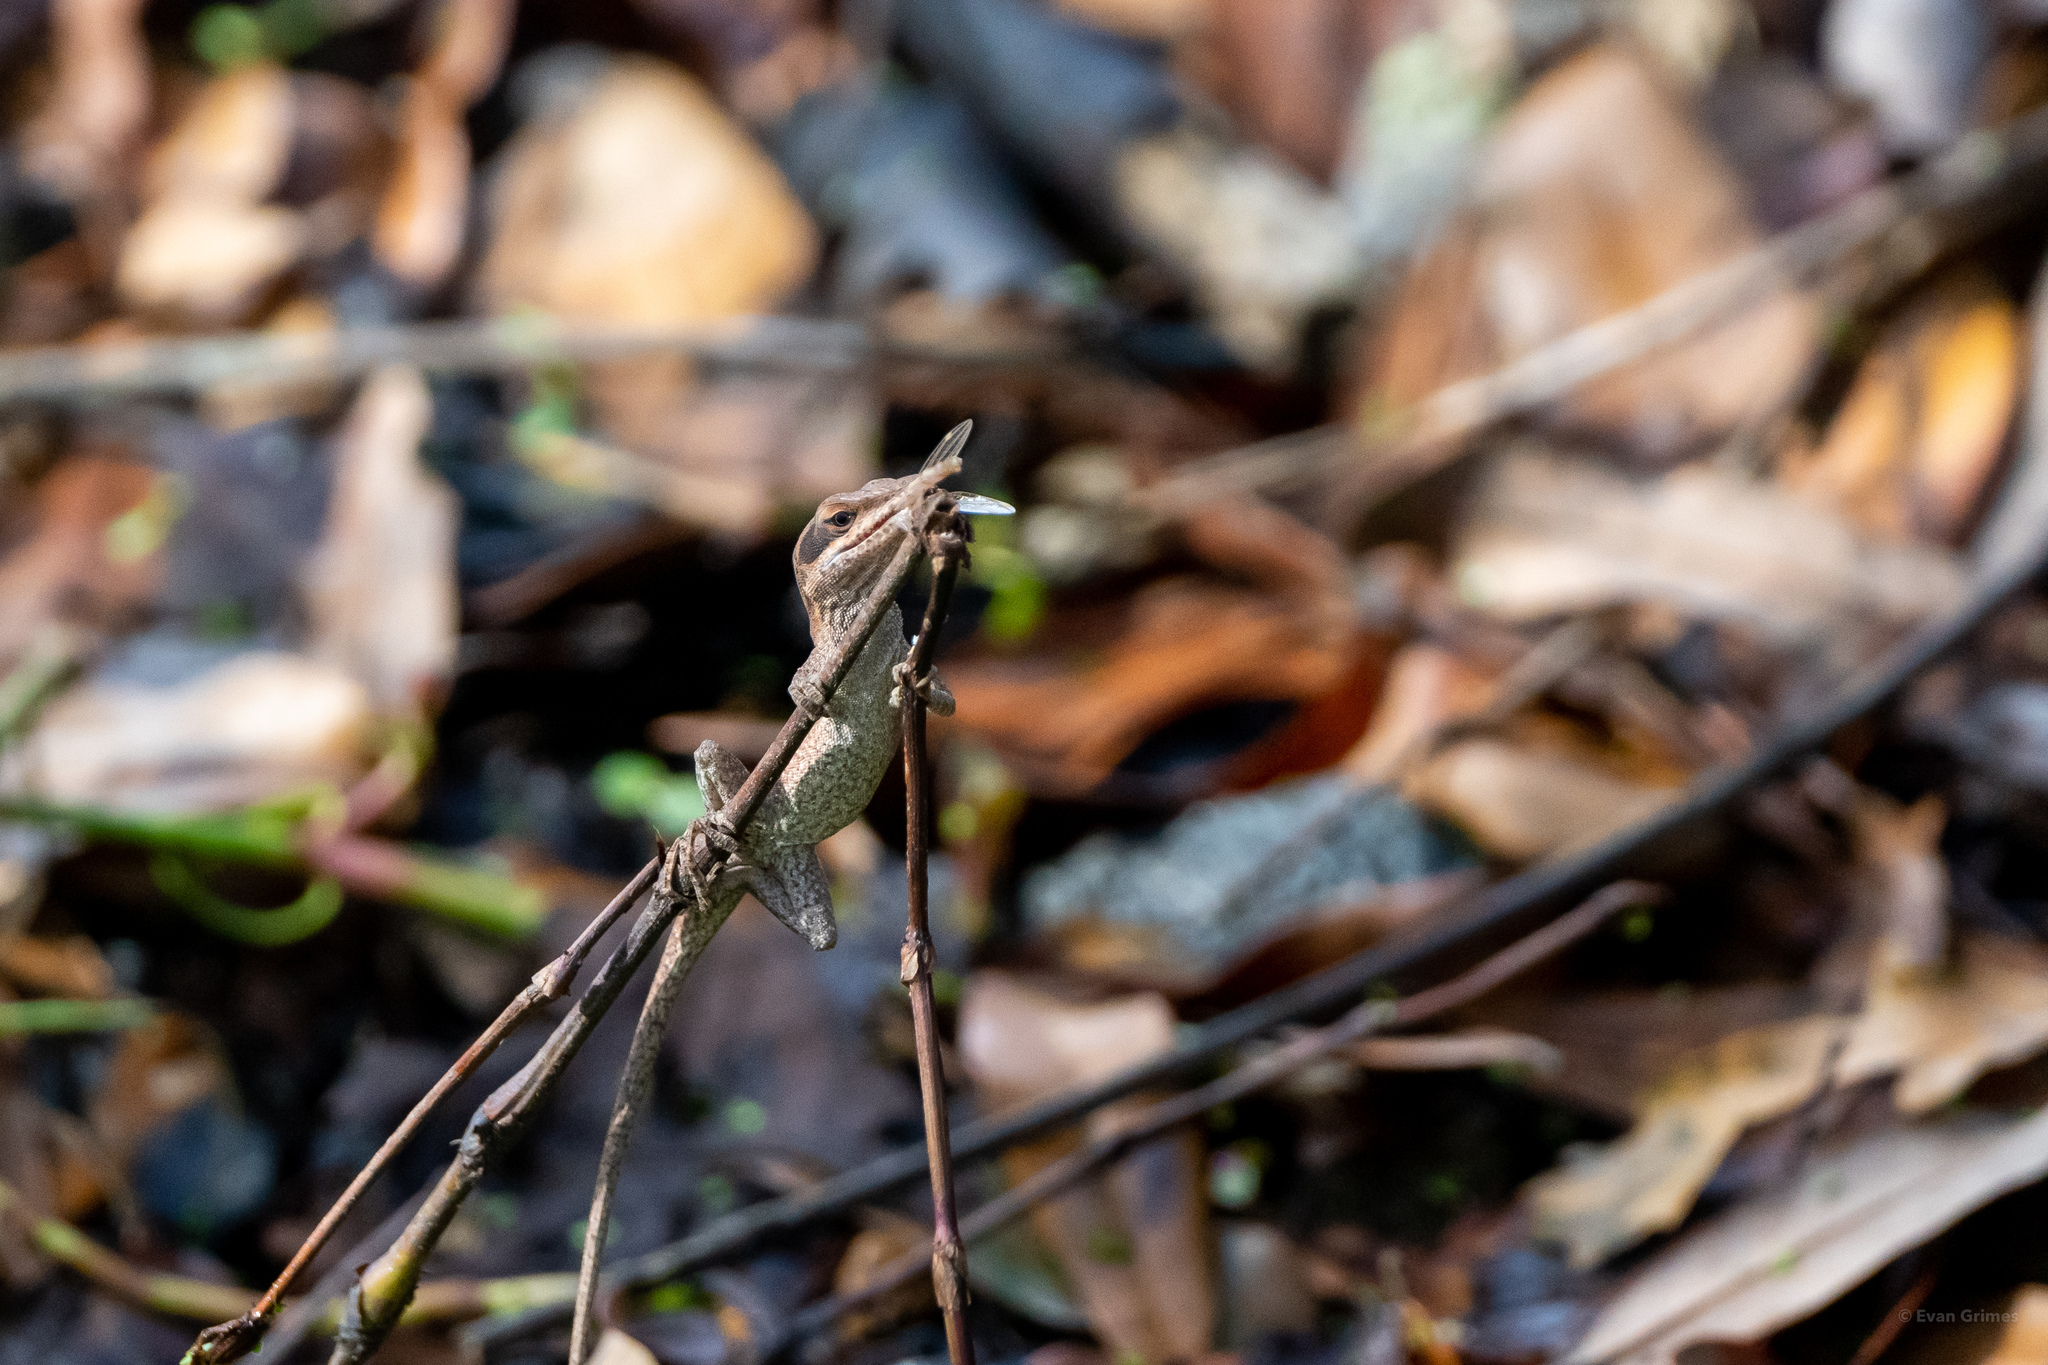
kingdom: Animalia
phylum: Chordata
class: Squamata
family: Dactyloidae
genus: Anolis
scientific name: Anolis carolinensis
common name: Green anole
